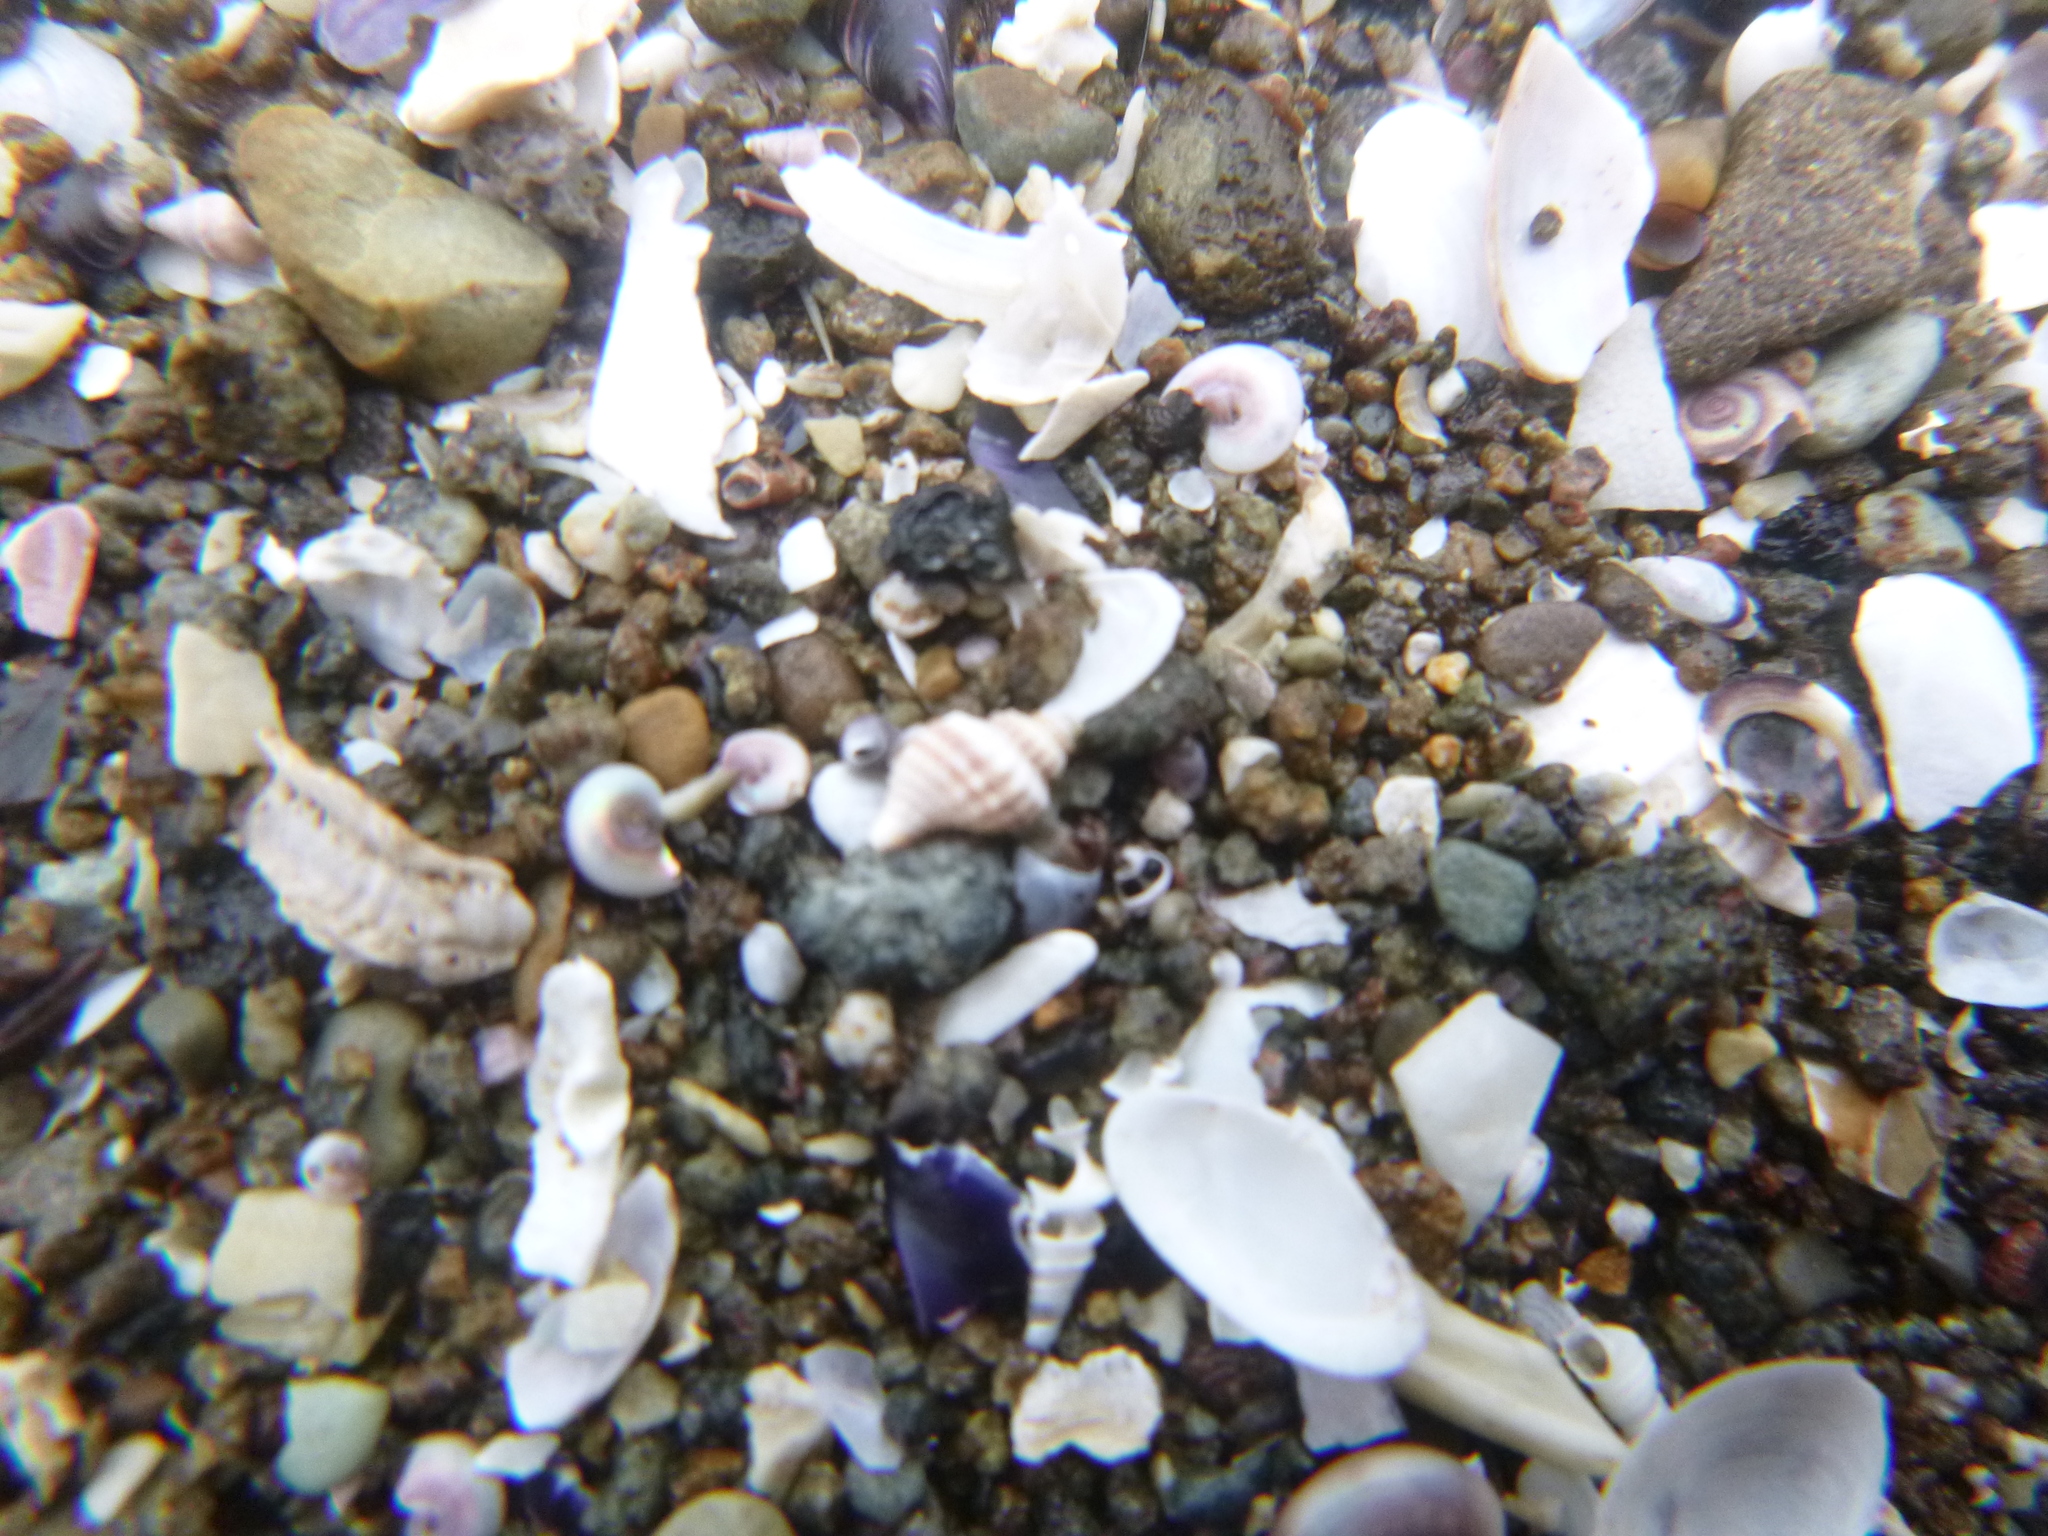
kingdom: Animalia
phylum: Mollusca
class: Gastropoda
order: Neogastropoda
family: Muricidae
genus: Xymene
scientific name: Xymene plebeius
